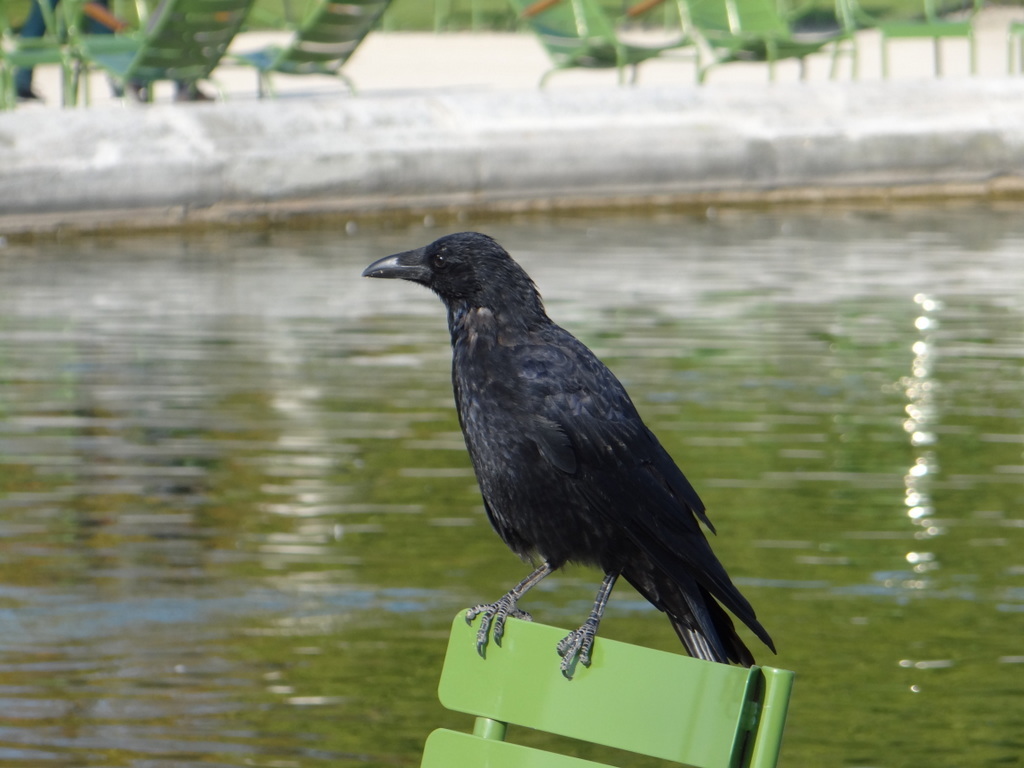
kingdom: Animalia
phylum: Chordata
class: Aves
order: Passeriformes
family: Corvidae
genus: Corvus
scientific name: Corvus corone
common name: Carrion crow
